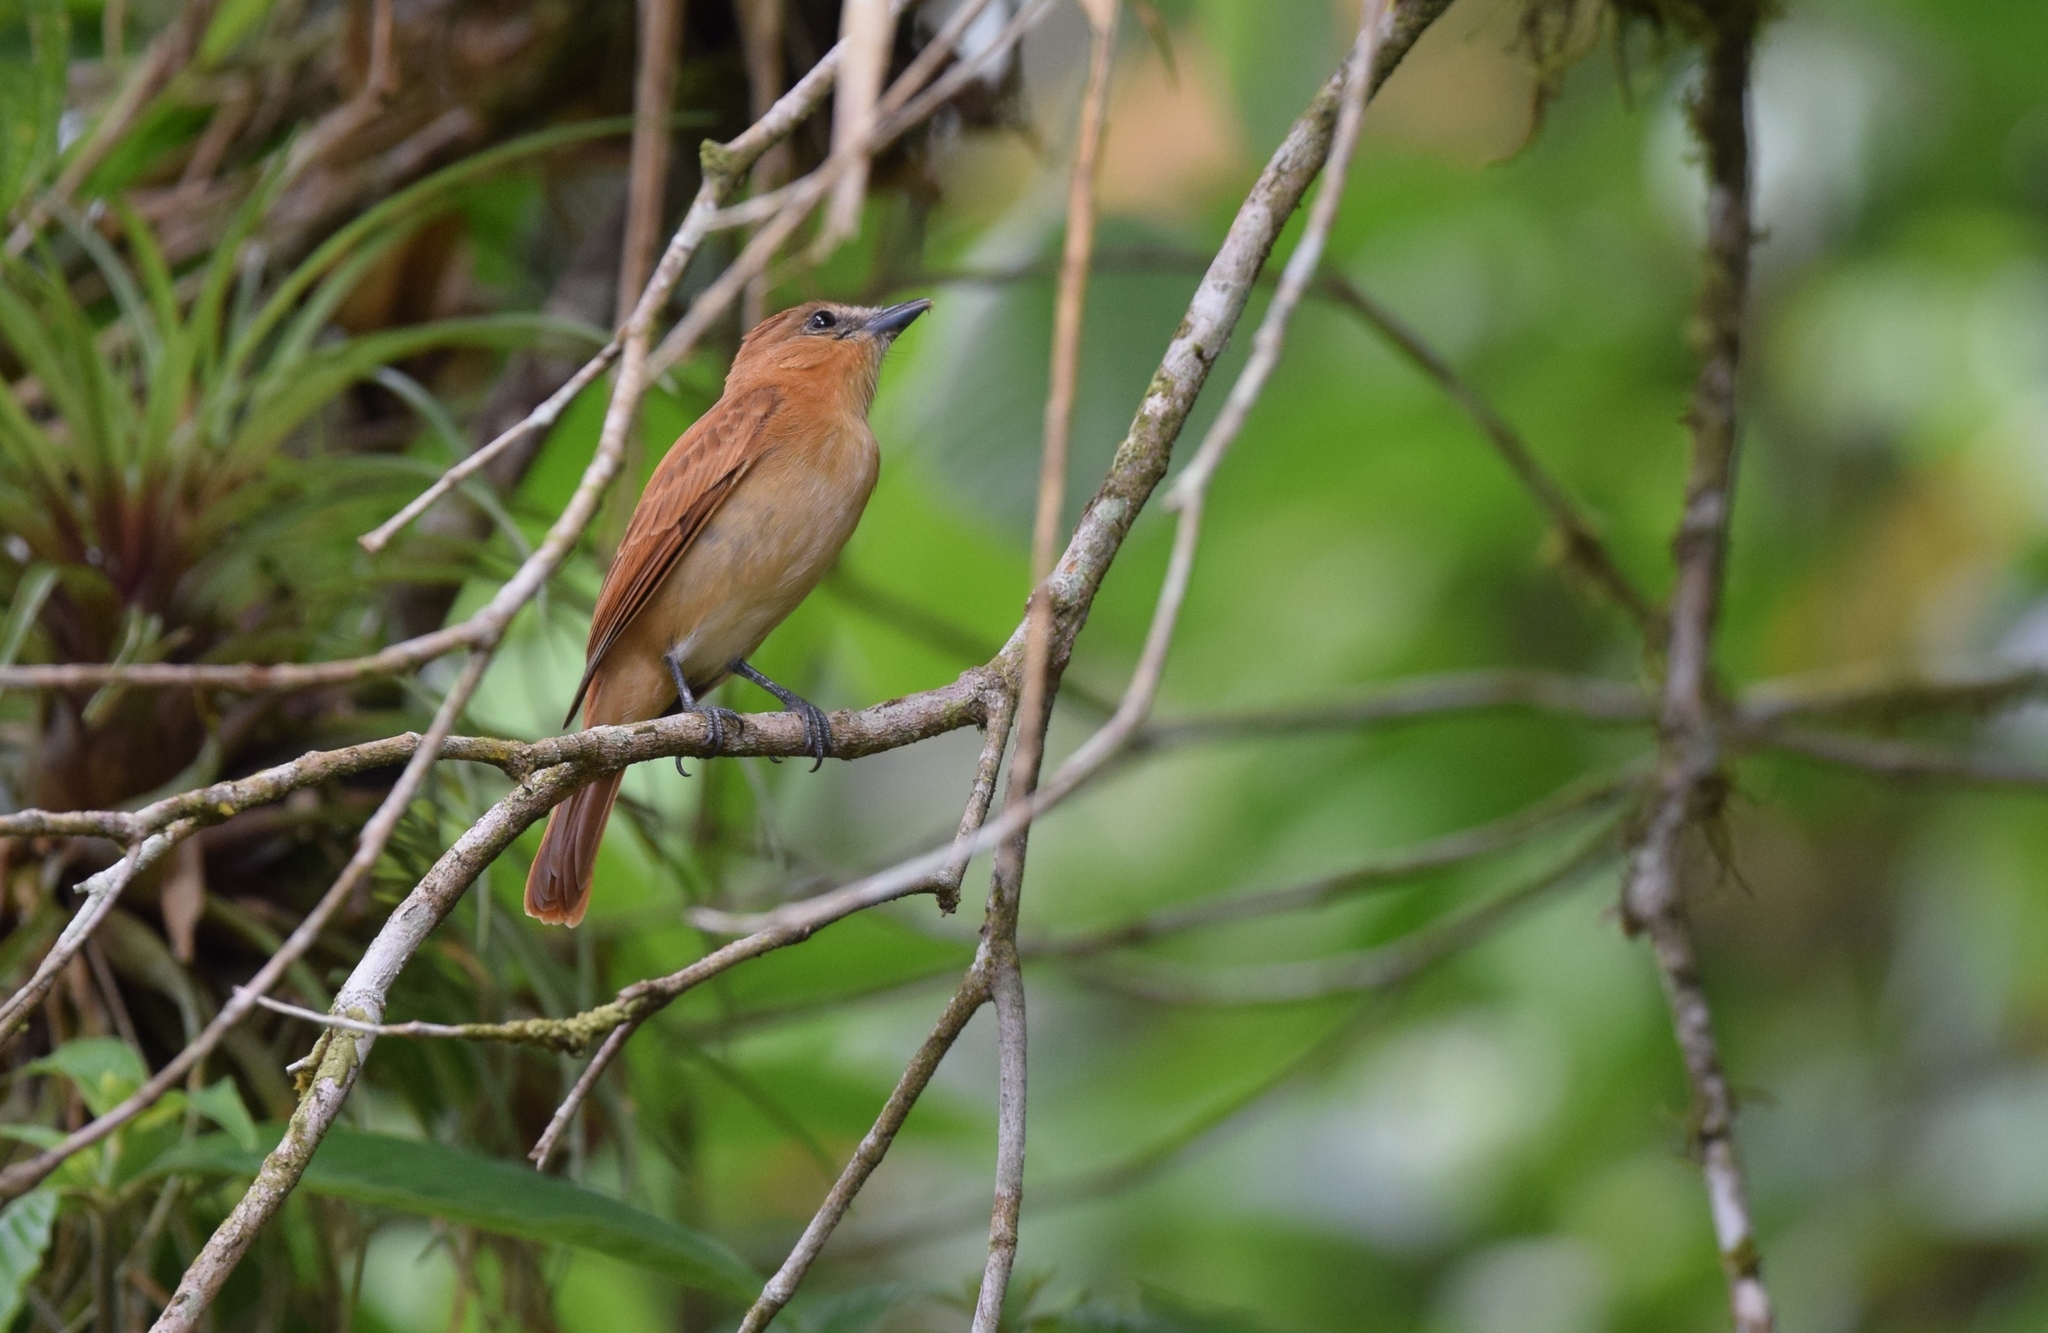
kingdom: Animalia
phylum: Chordata
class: Aves
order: Passeriformes
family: Cotingidae
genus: Pachyramphus
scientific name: Pachyramphus cinnamomeus
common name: Cinnamon becard
